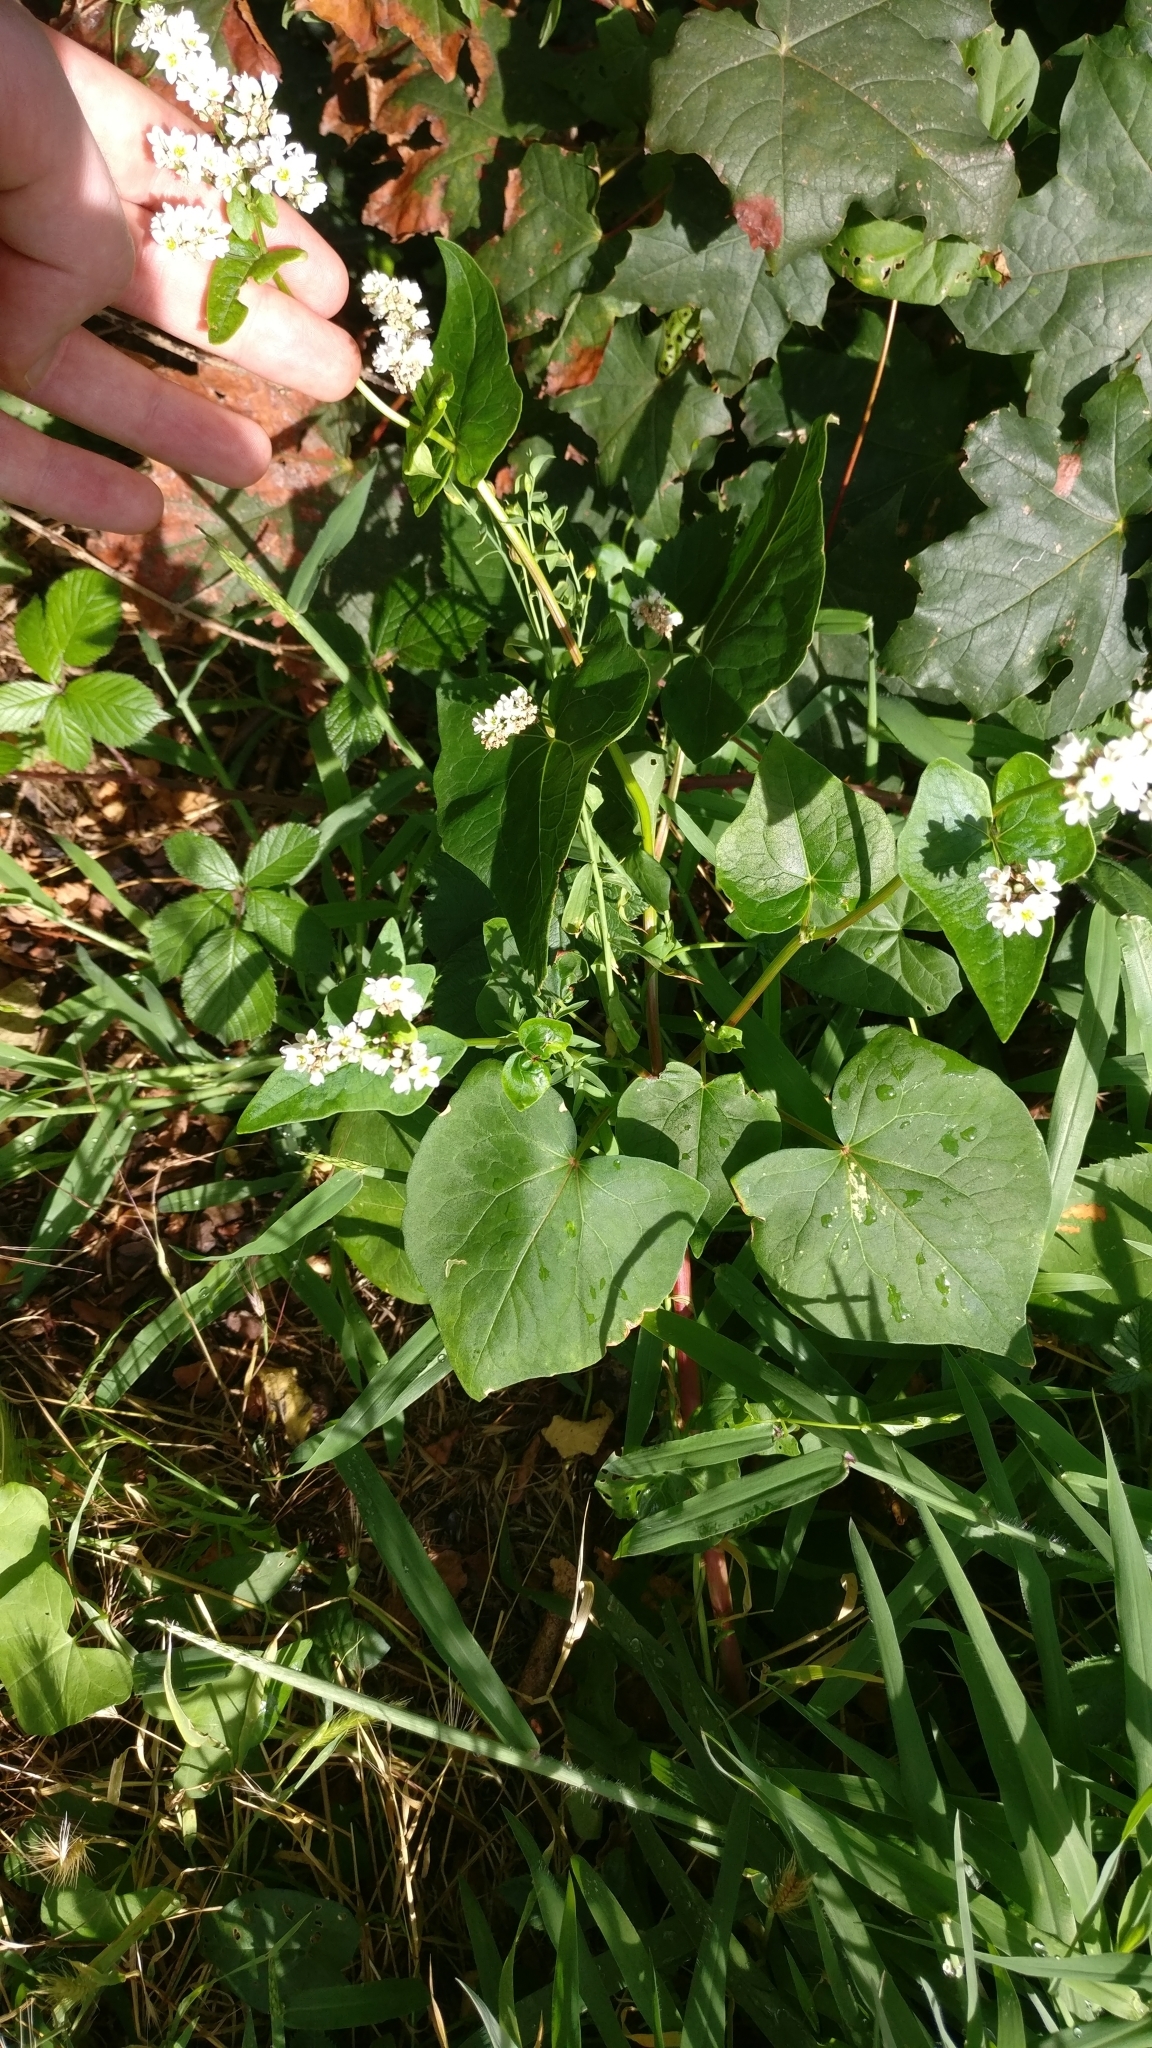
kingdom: Plantae
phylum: Tracheophyta
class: Magnoliopsida
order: Caryophyllales
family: Polygonaceae
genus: Fagopyrum
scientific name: Fagopyrum esculentum
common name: Buckwheat
